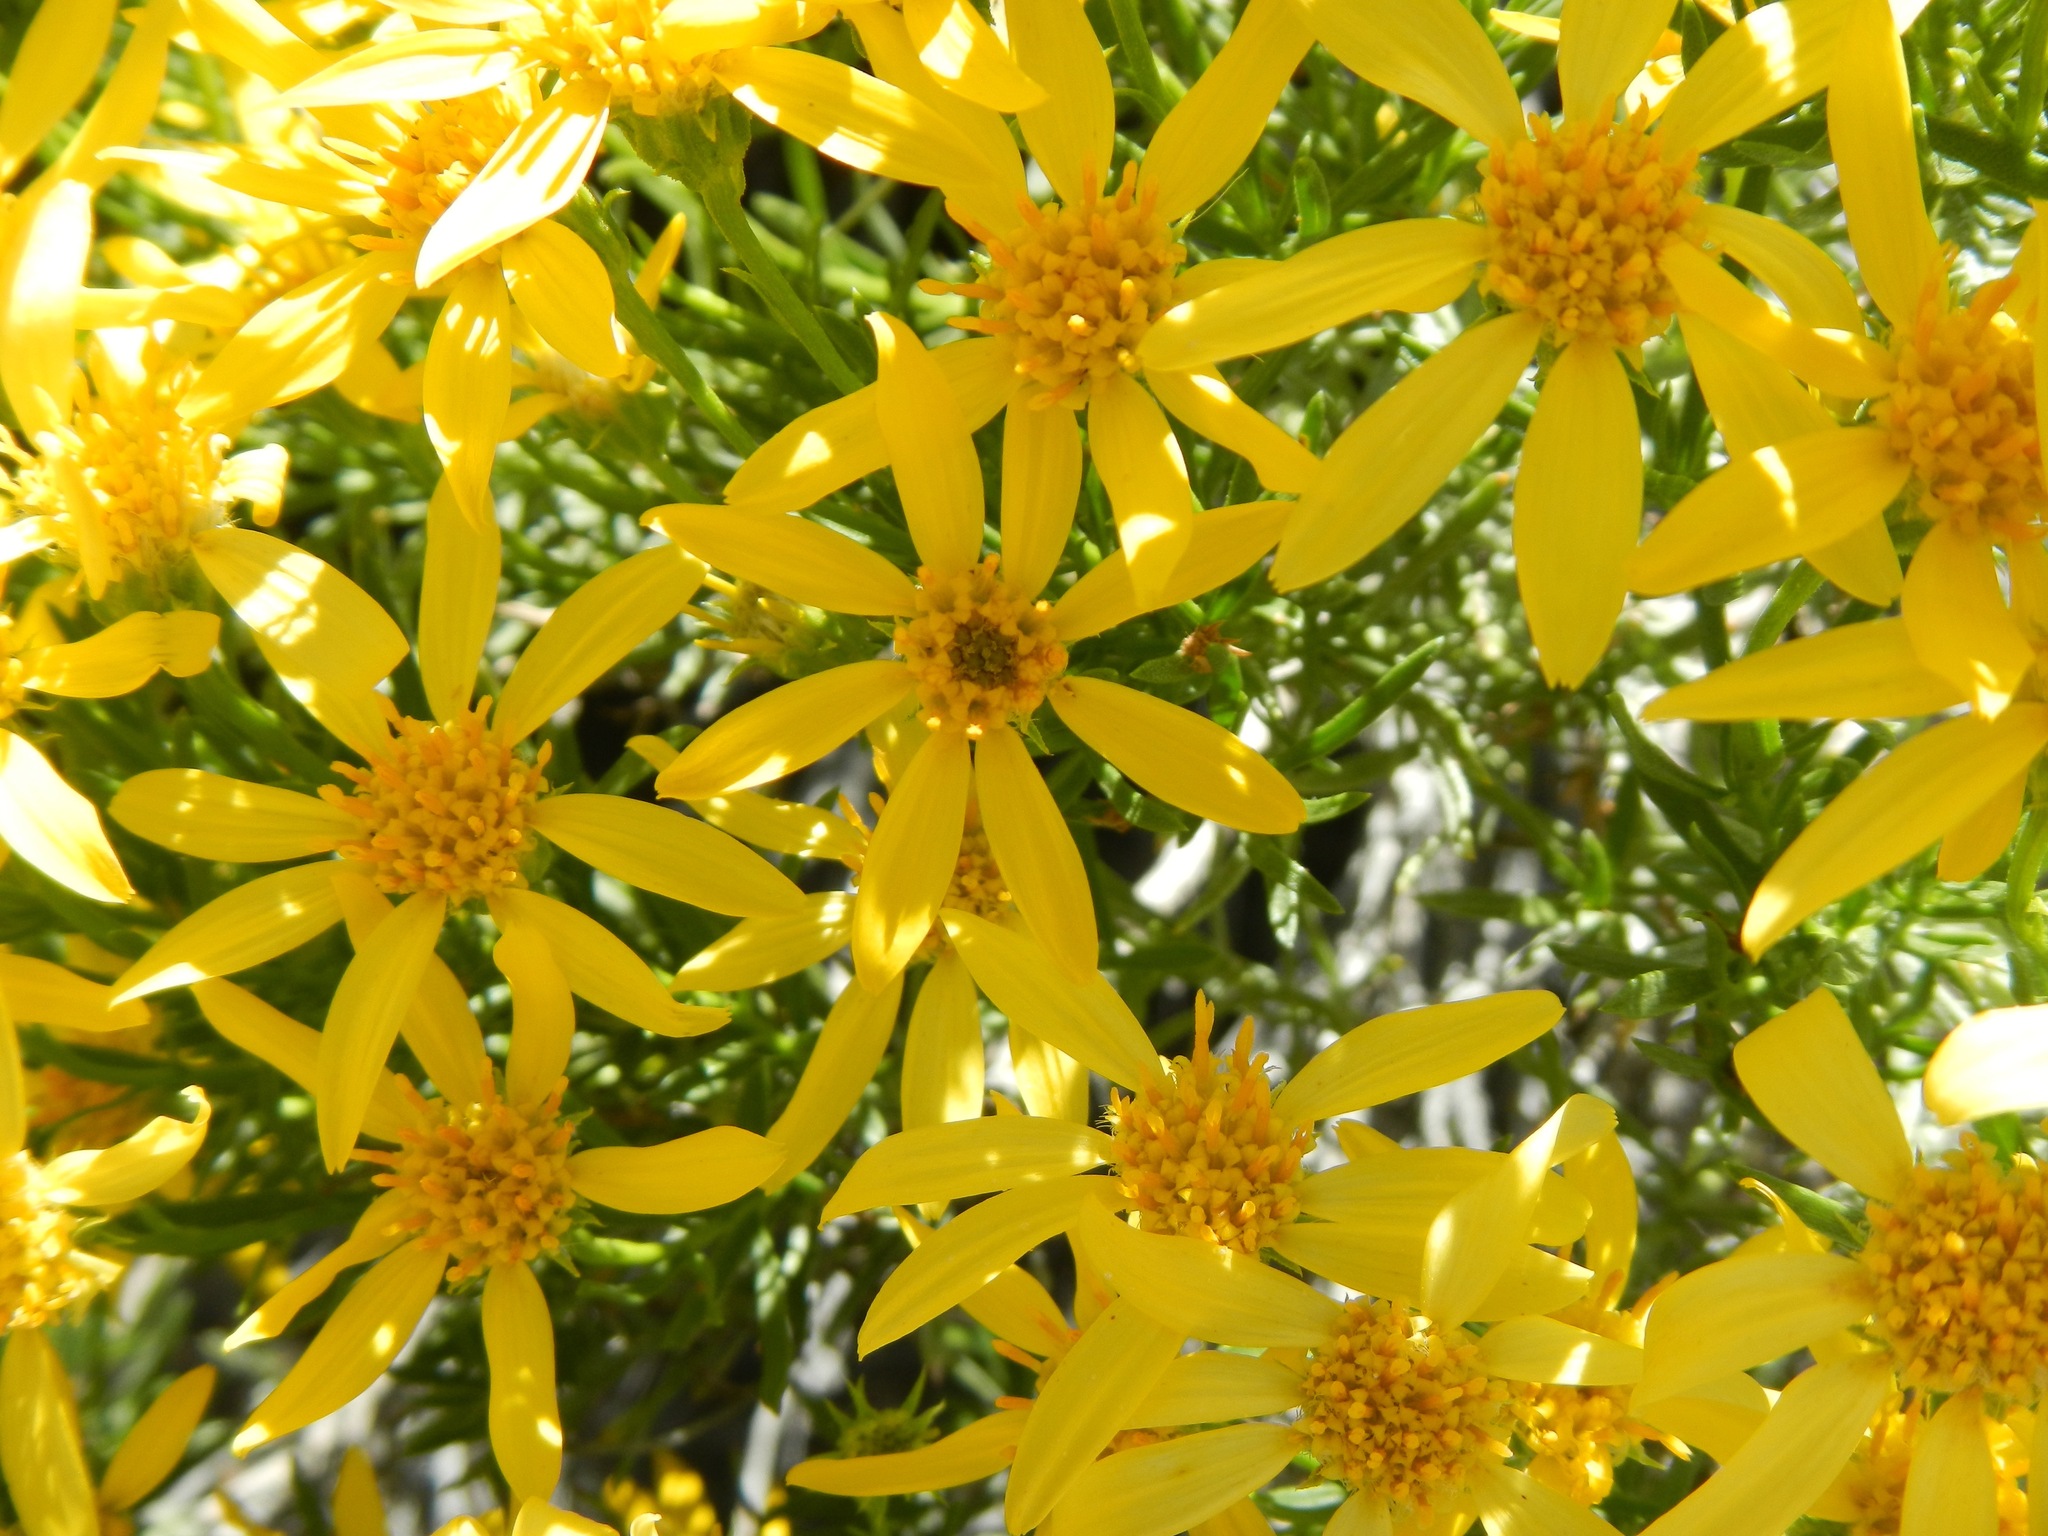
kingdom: Plantae
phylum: Tracheophyta
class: Magnoliopsida
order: Asterales
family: Asteraceae
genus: Ericameria
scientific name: Ericameria linearifolia
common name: Interior goldenbush
